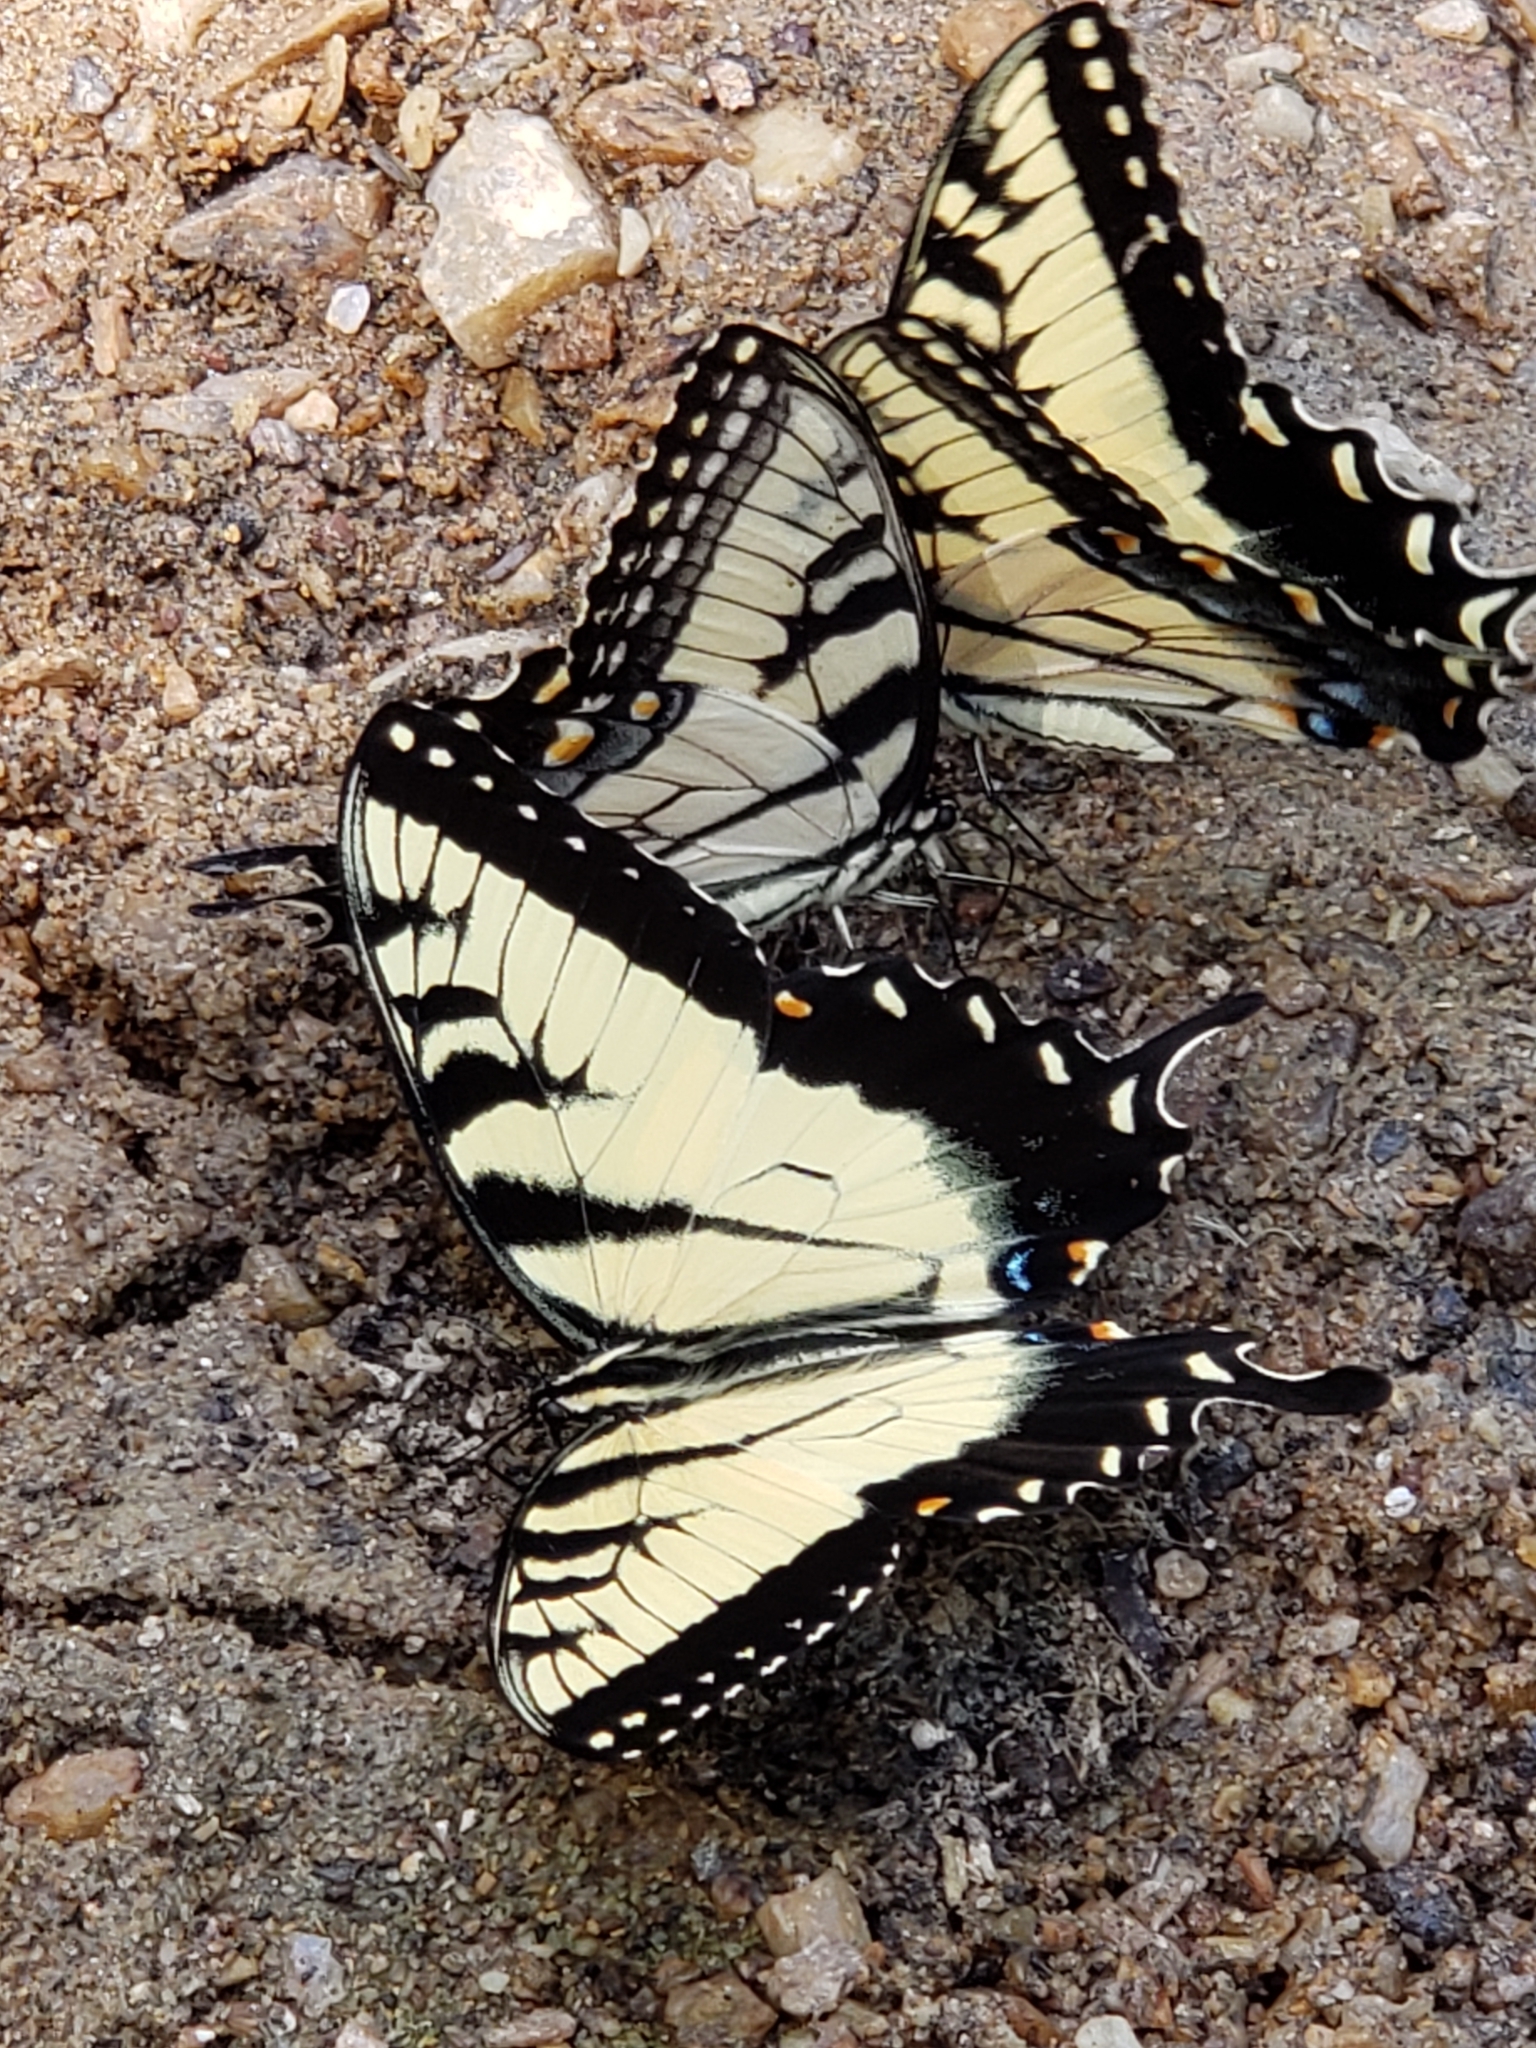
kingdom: Animalia
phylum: Arthropoda
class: Insecta
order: Lepidoptera
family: Papilionidae
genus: Papilio
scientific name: Papilio glaucus
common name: Tiger swallowtail
